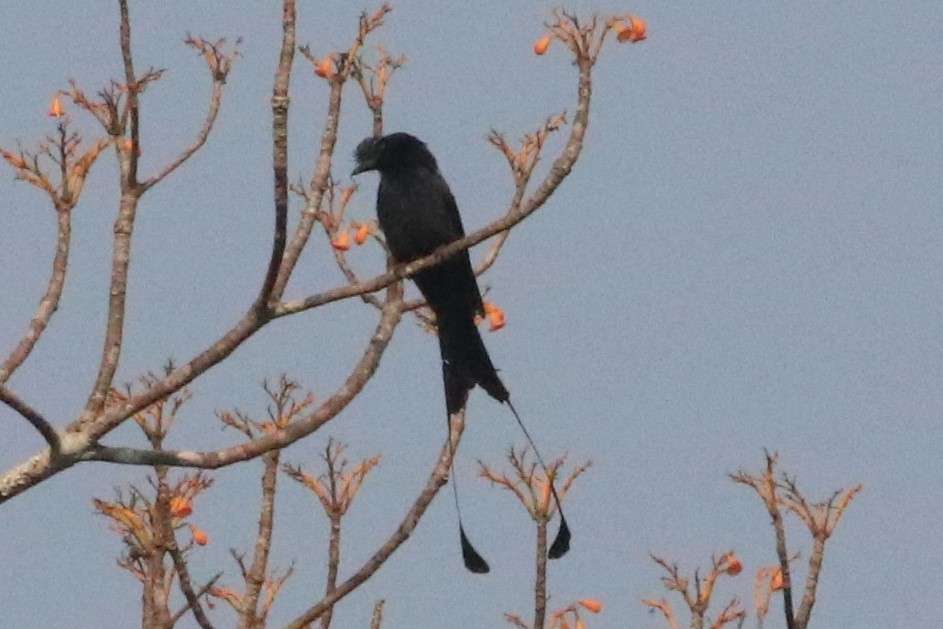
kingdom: Animalia
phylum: Chordata
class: Aves
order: Passeriformes
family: Dicruridae
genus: Dicrurus
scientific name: Dicrurus paradiseus
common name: Greater racket-tailed drongo
